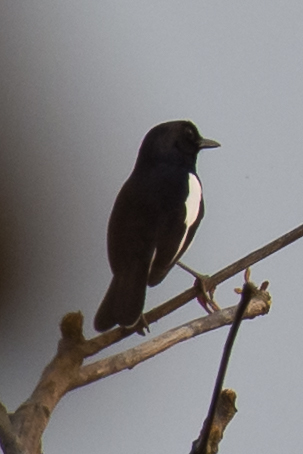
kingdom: Animalia
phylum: Chordata
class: Aves
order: Passeriformes
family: Muscicapidae
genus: Copsychus
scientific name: Copsychus saularis
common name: Oriental magpie-robin
